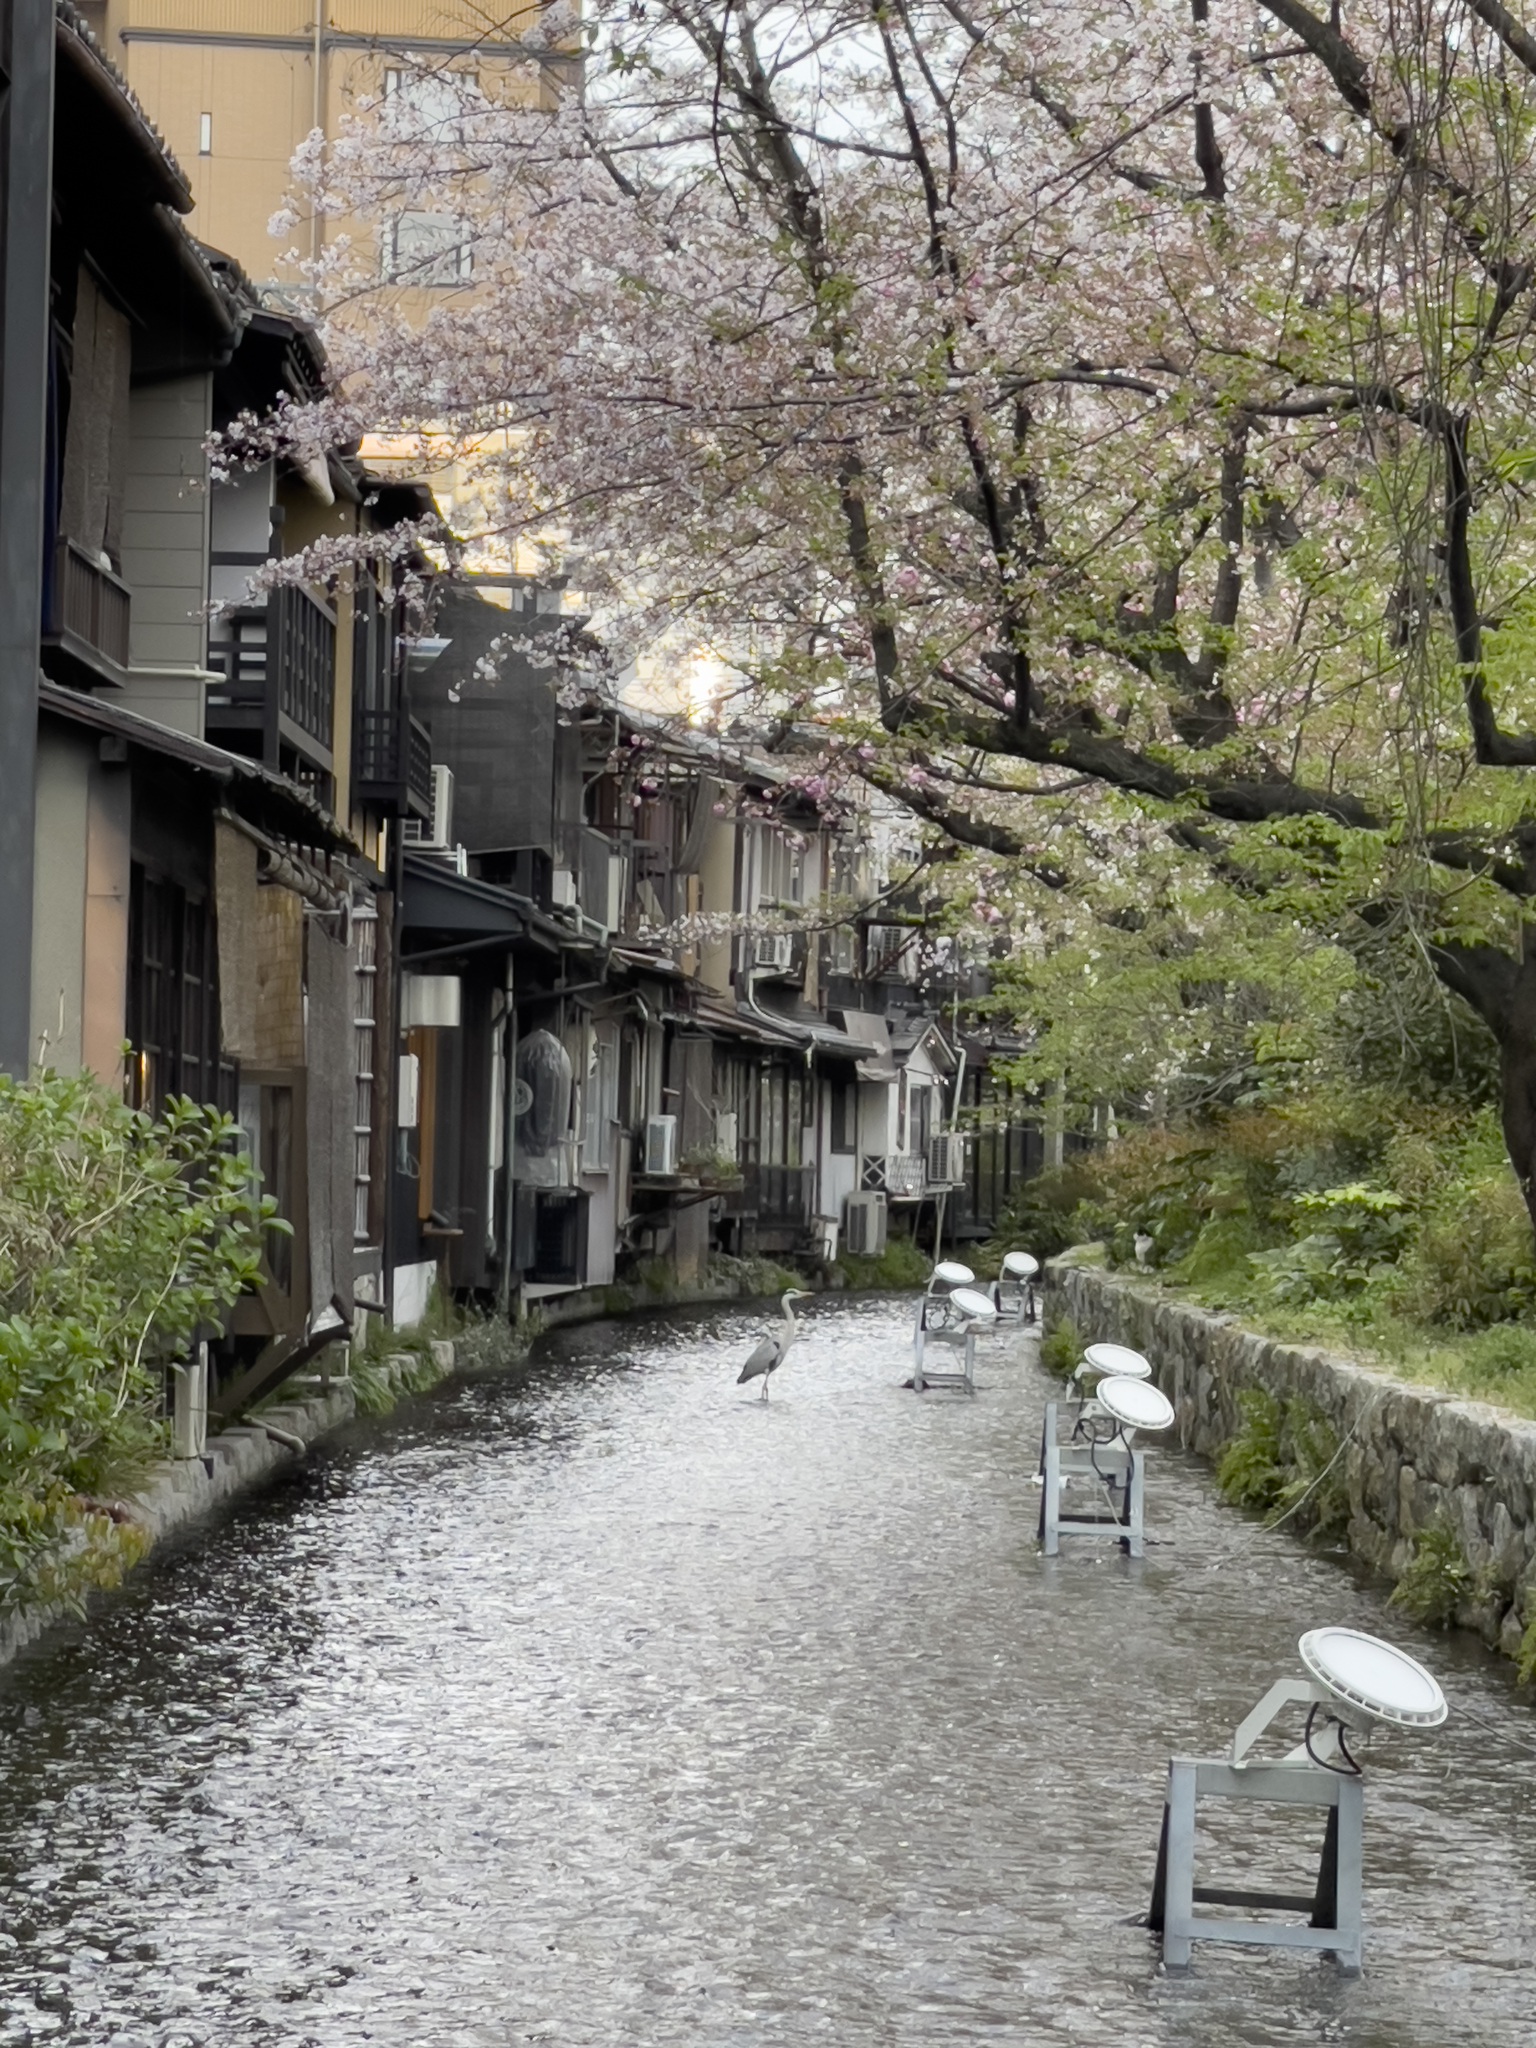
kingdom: Animalia
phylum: Chordata
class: Aves
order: Pelecaniformes
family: Ardeidae
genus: Ardea
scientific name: Ardea cinerea
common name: Grey heron
